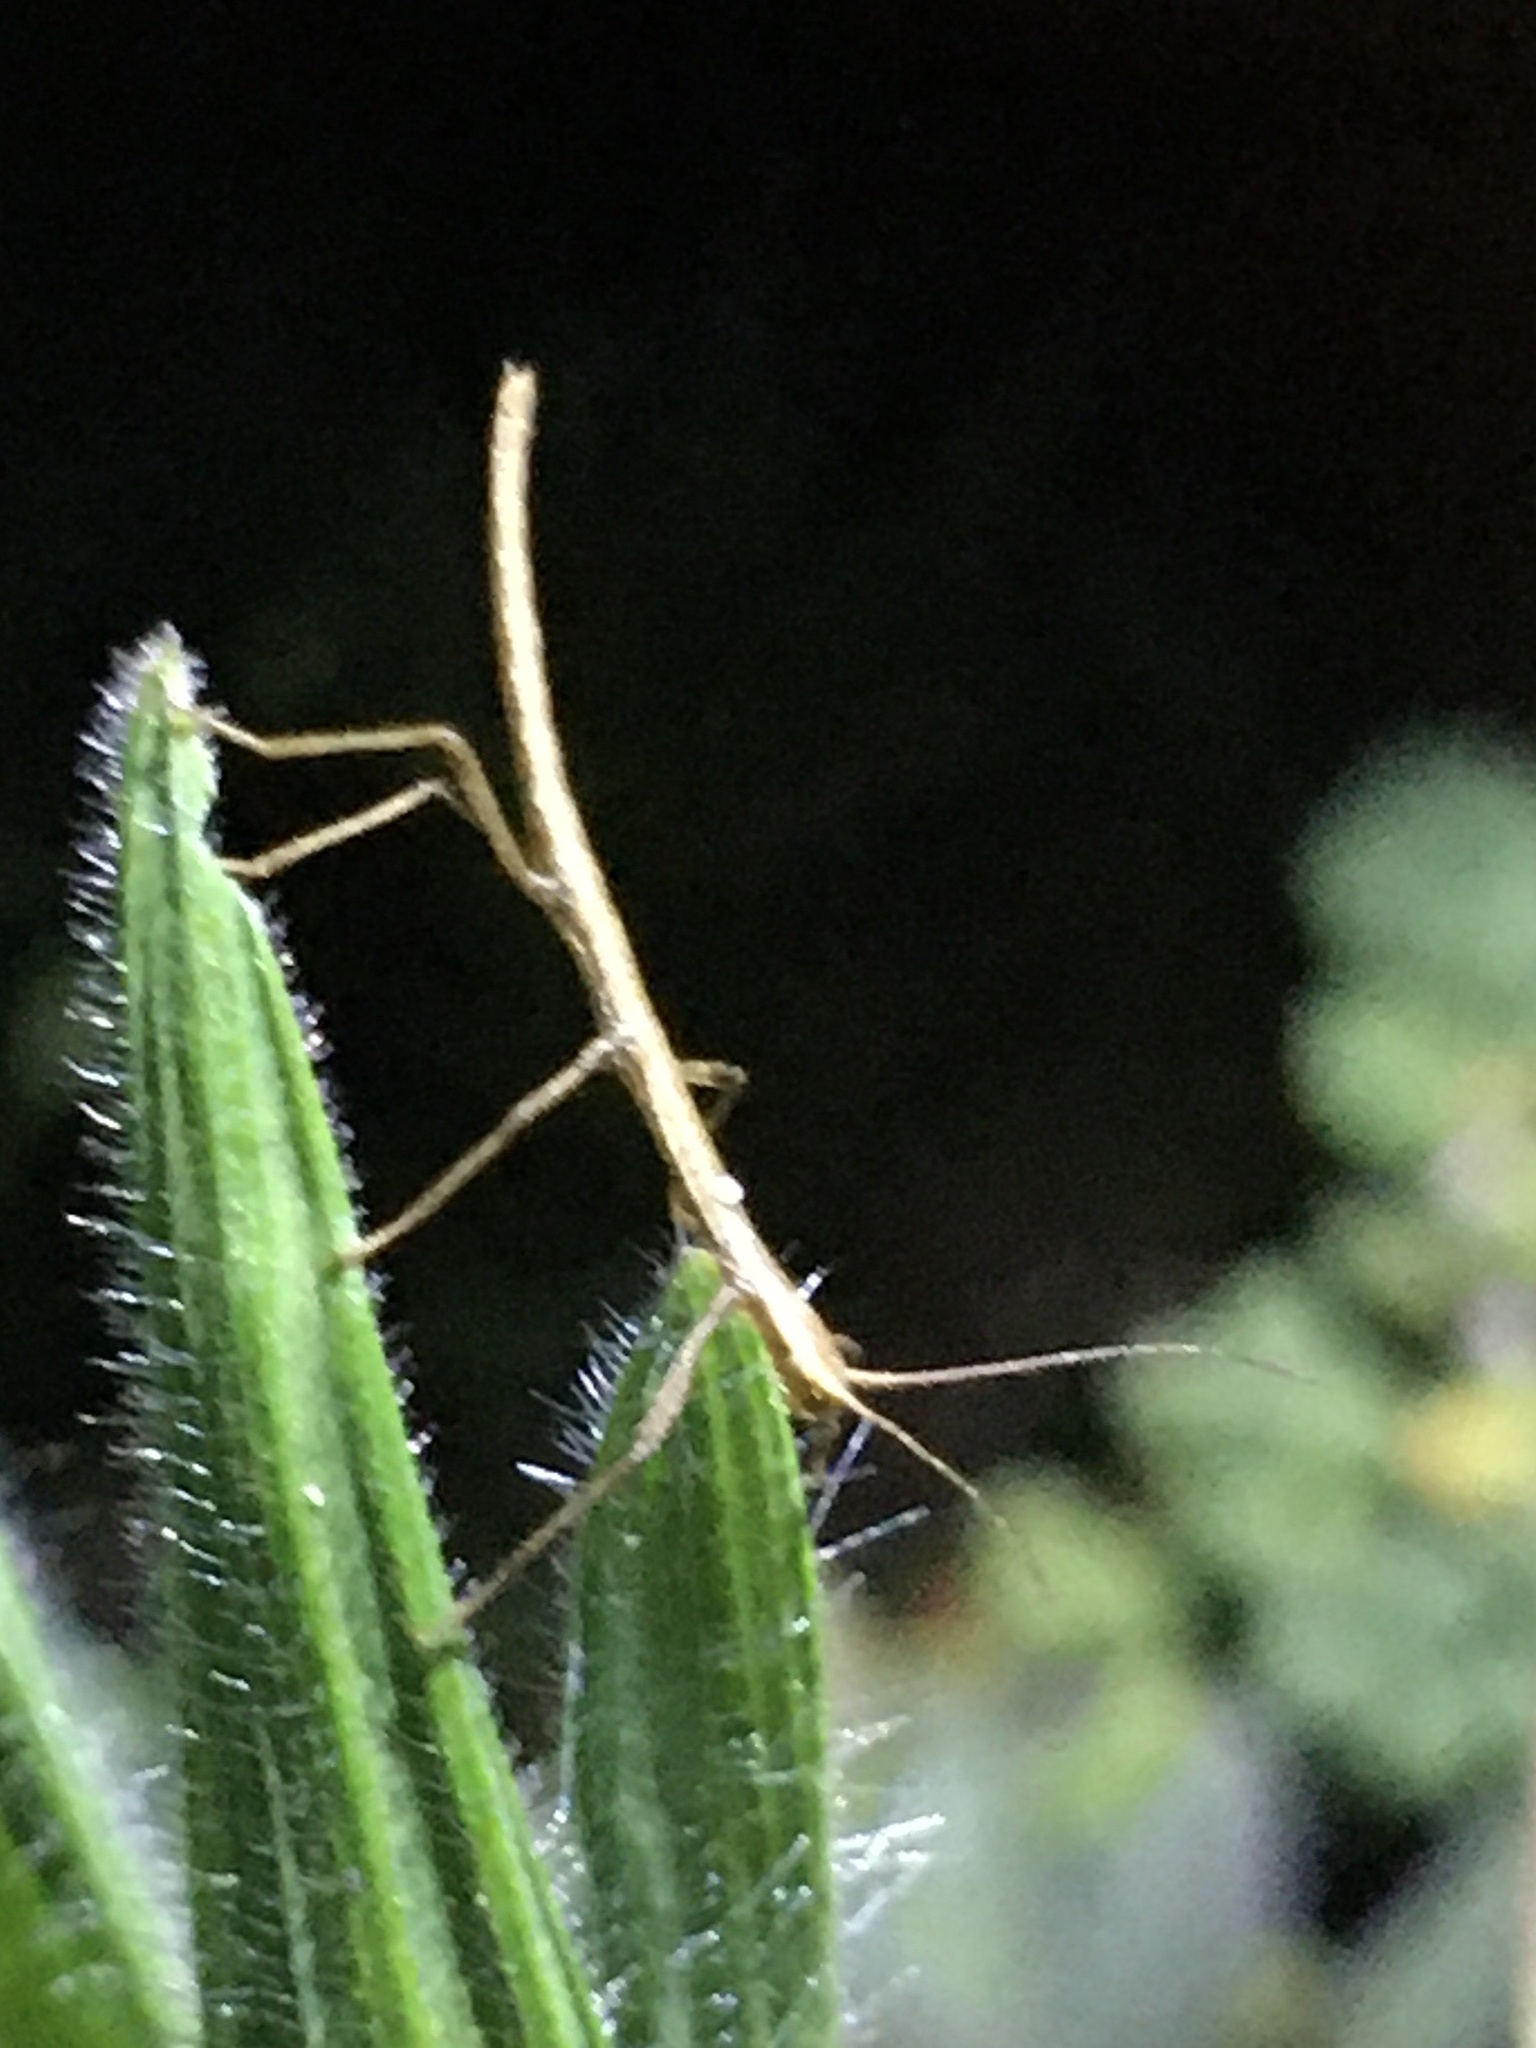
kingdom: Animalia
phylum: Arthropoda
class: Insecta
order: Phasmida
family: Lonchodidae
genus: Carausius
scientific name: Carausius morosus
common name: Indian stick insect
